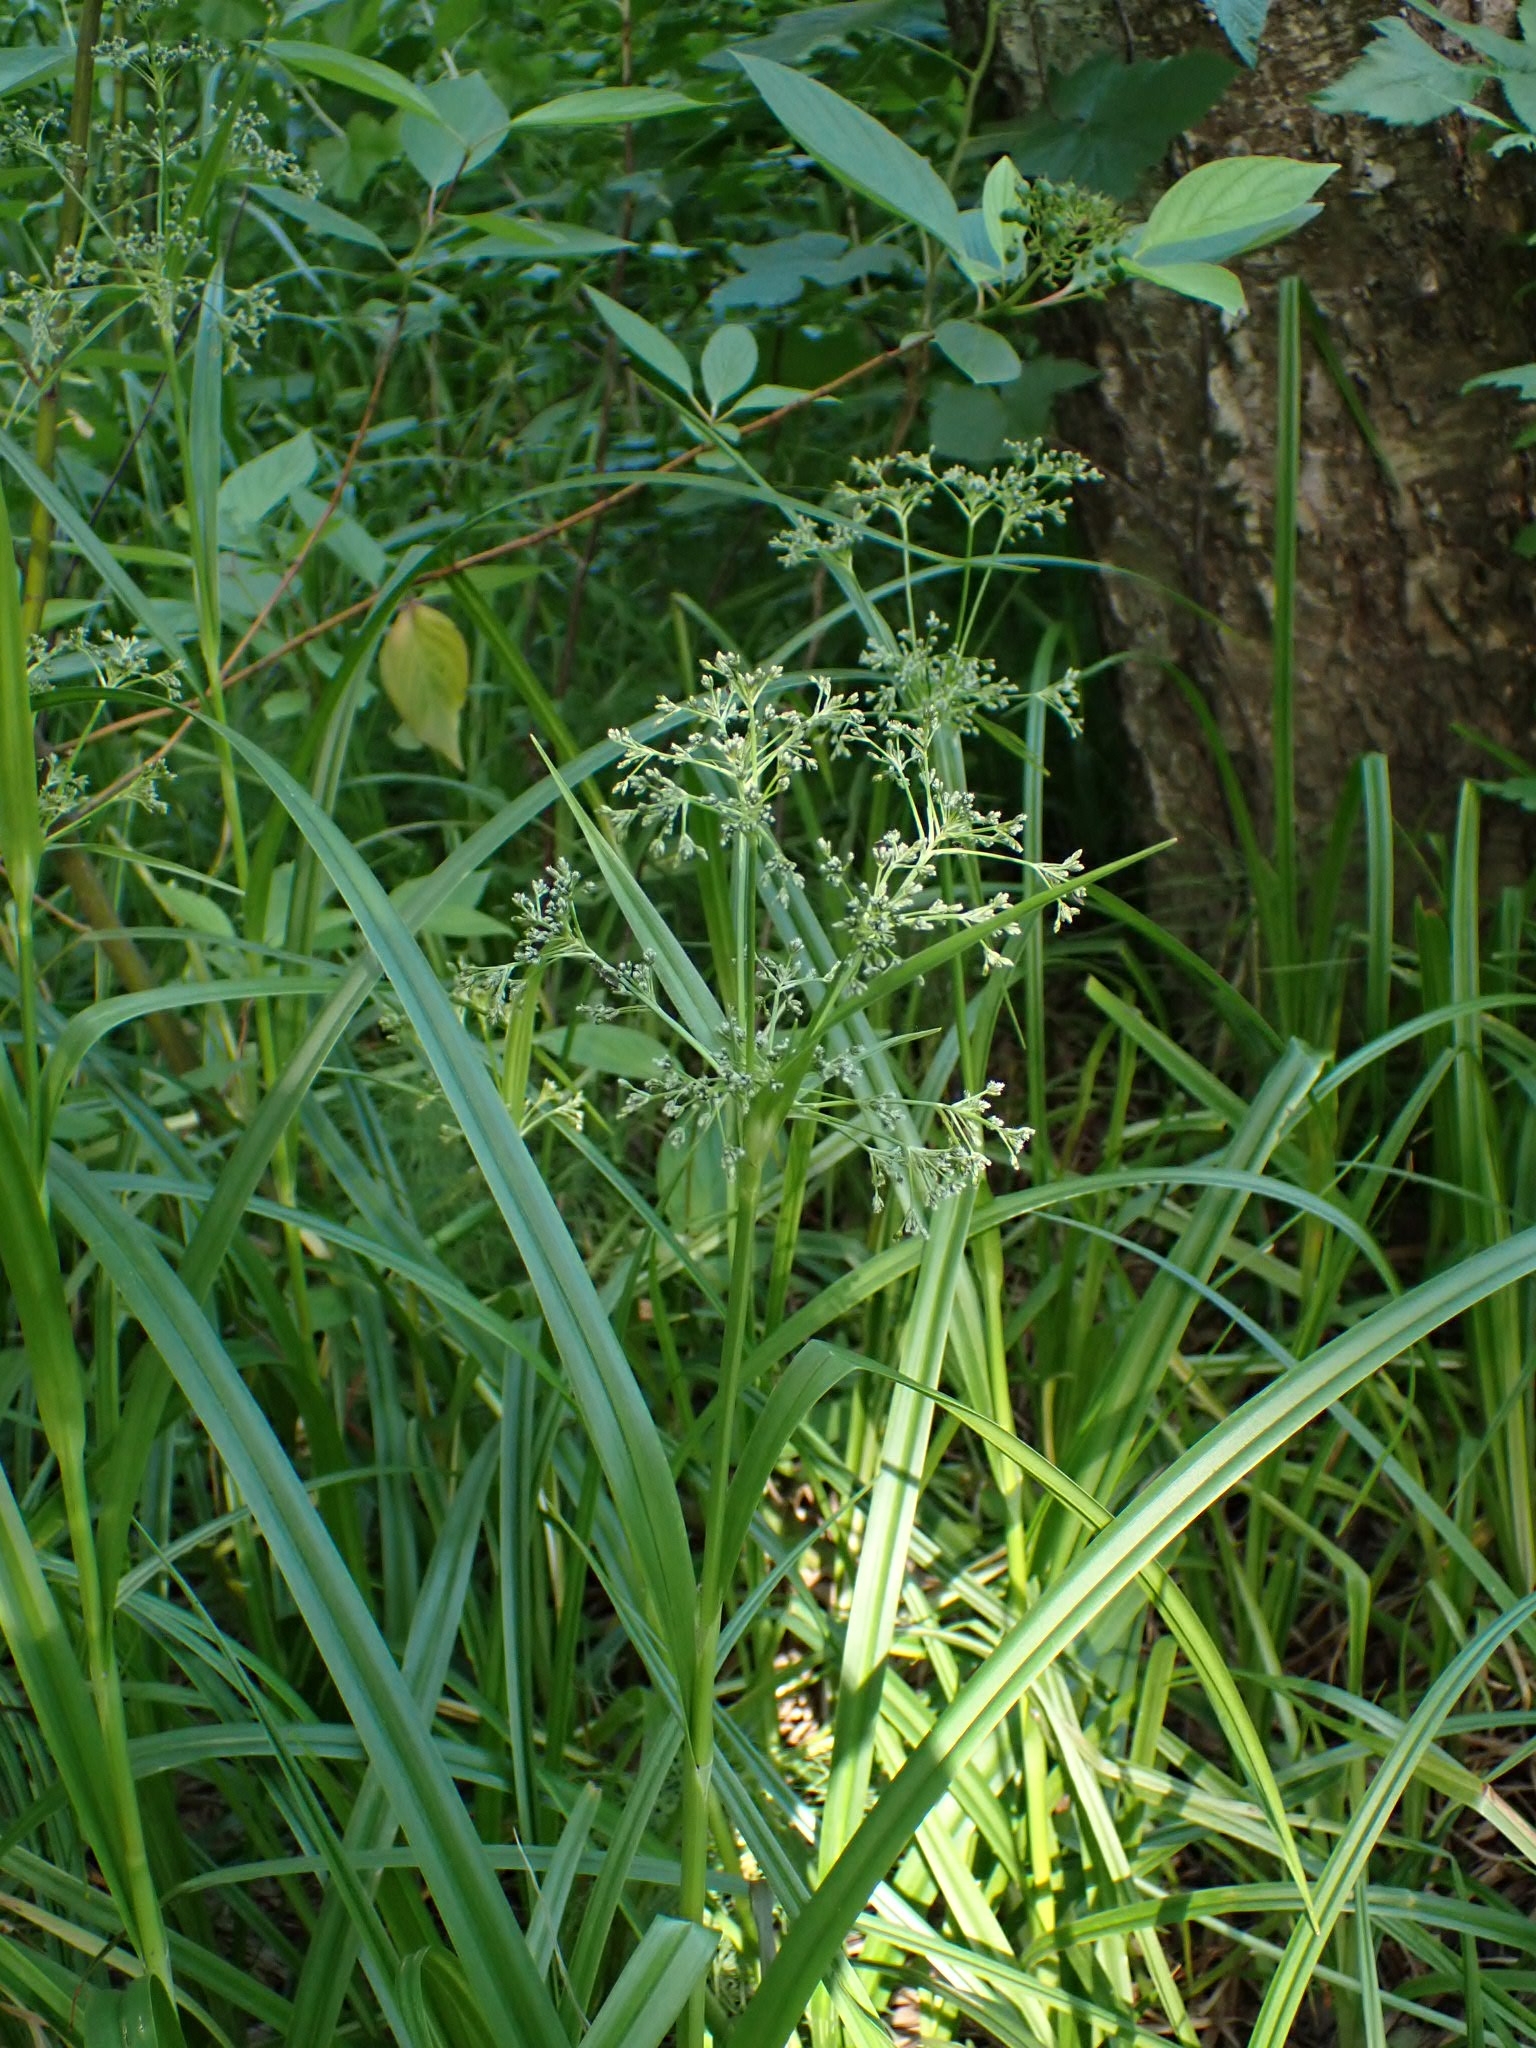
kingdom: Plantae
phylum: Tracheophyta
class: Liliopsida
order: Poales
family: Cyperaceae
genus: Scirpus
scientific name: Scirpus sylvaticus
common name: Wood club-rush
